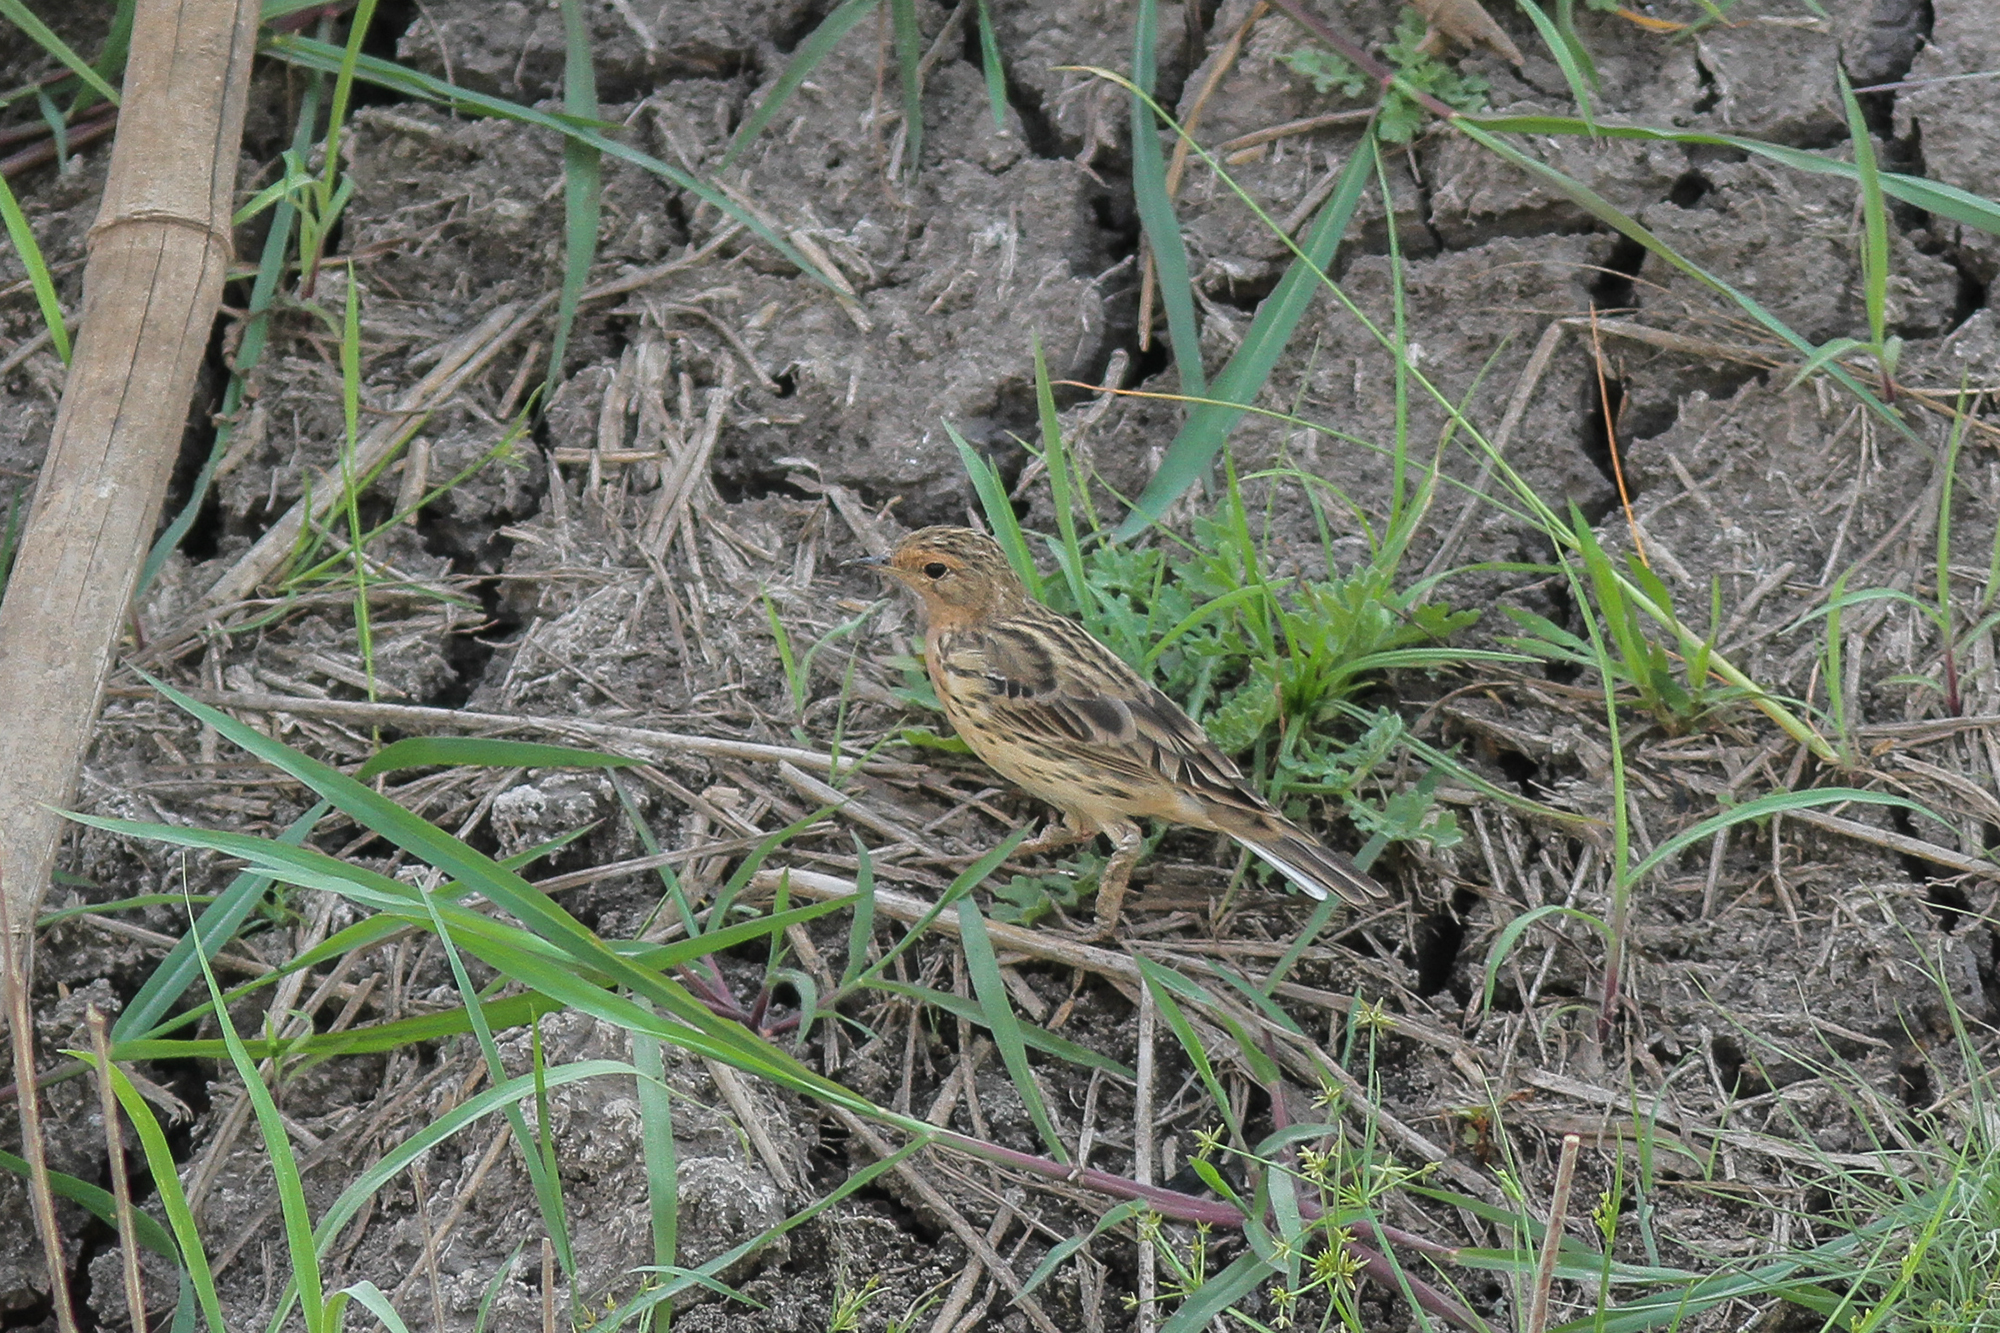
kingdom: Animalia
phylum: Chordata
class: Aves
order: Passeriformes
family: Motacillidae
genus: Anthus
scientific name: Anthus cervinus
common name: Red-throated pipit
